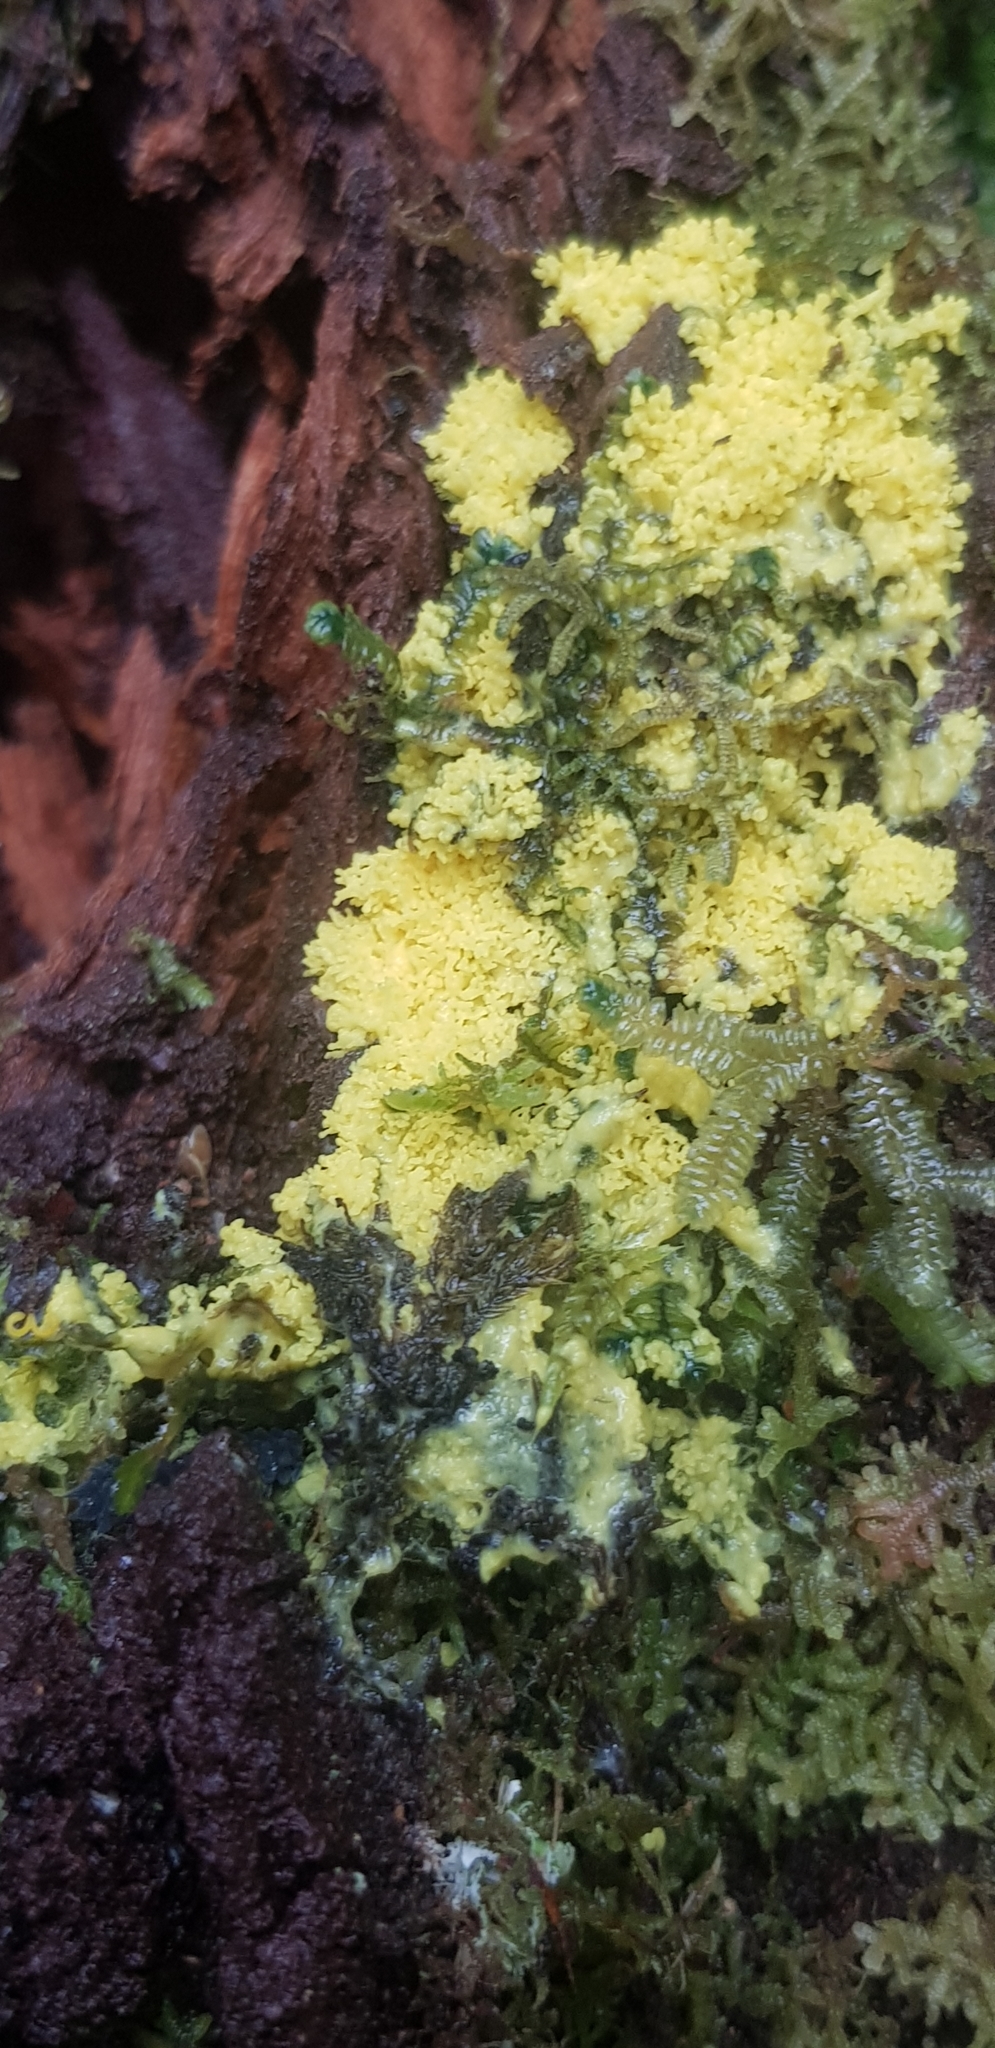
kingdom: Protozoa
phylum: Mycetozoa
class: Myxomycetes
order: Physarales
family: Physaraceae
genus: Fuligo
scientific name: Fuligo septica
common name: Dog vomit slime mold
